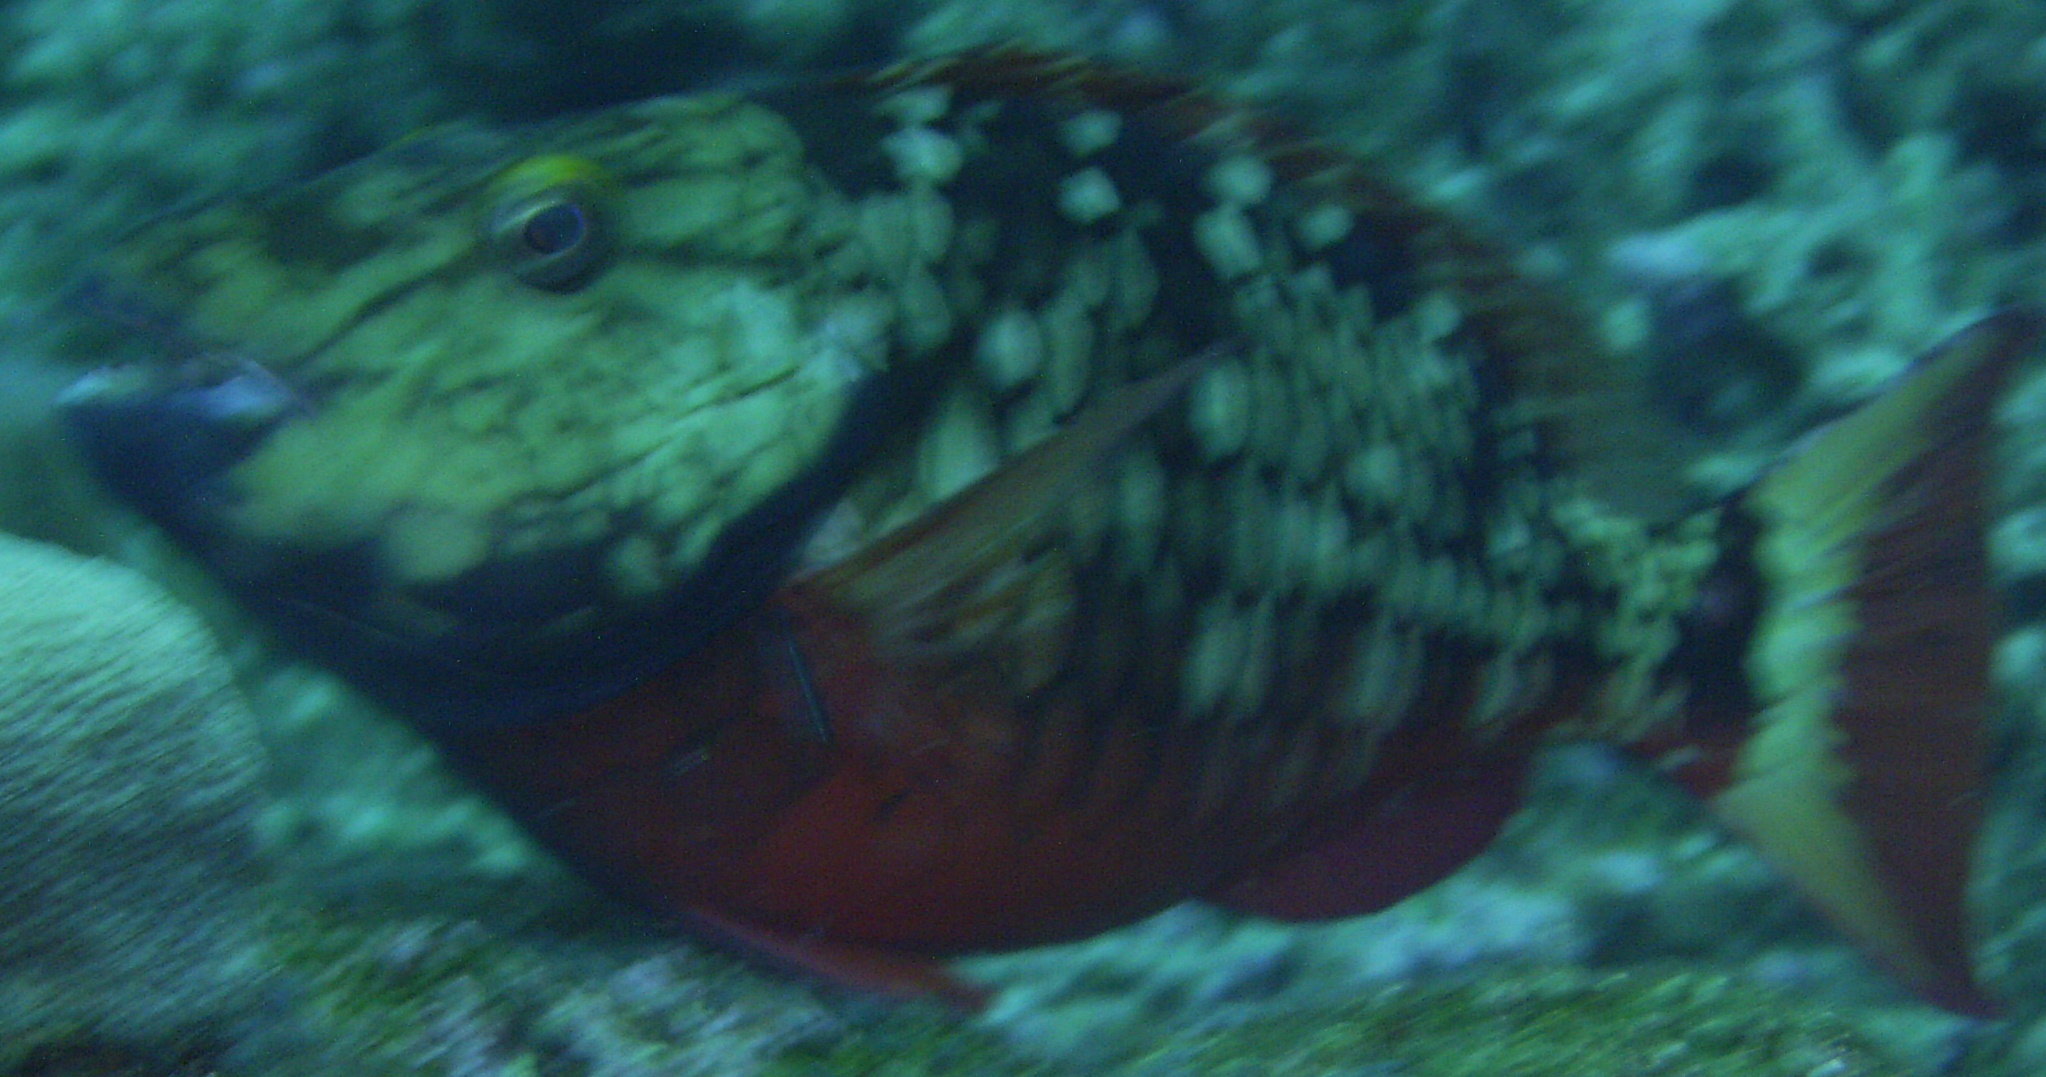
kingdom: Animalia
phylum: Chordata
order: Perciformes
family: Scaridae
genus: Sparisoma
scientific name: Sparisoma viride
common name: Stoplight parrotfish
